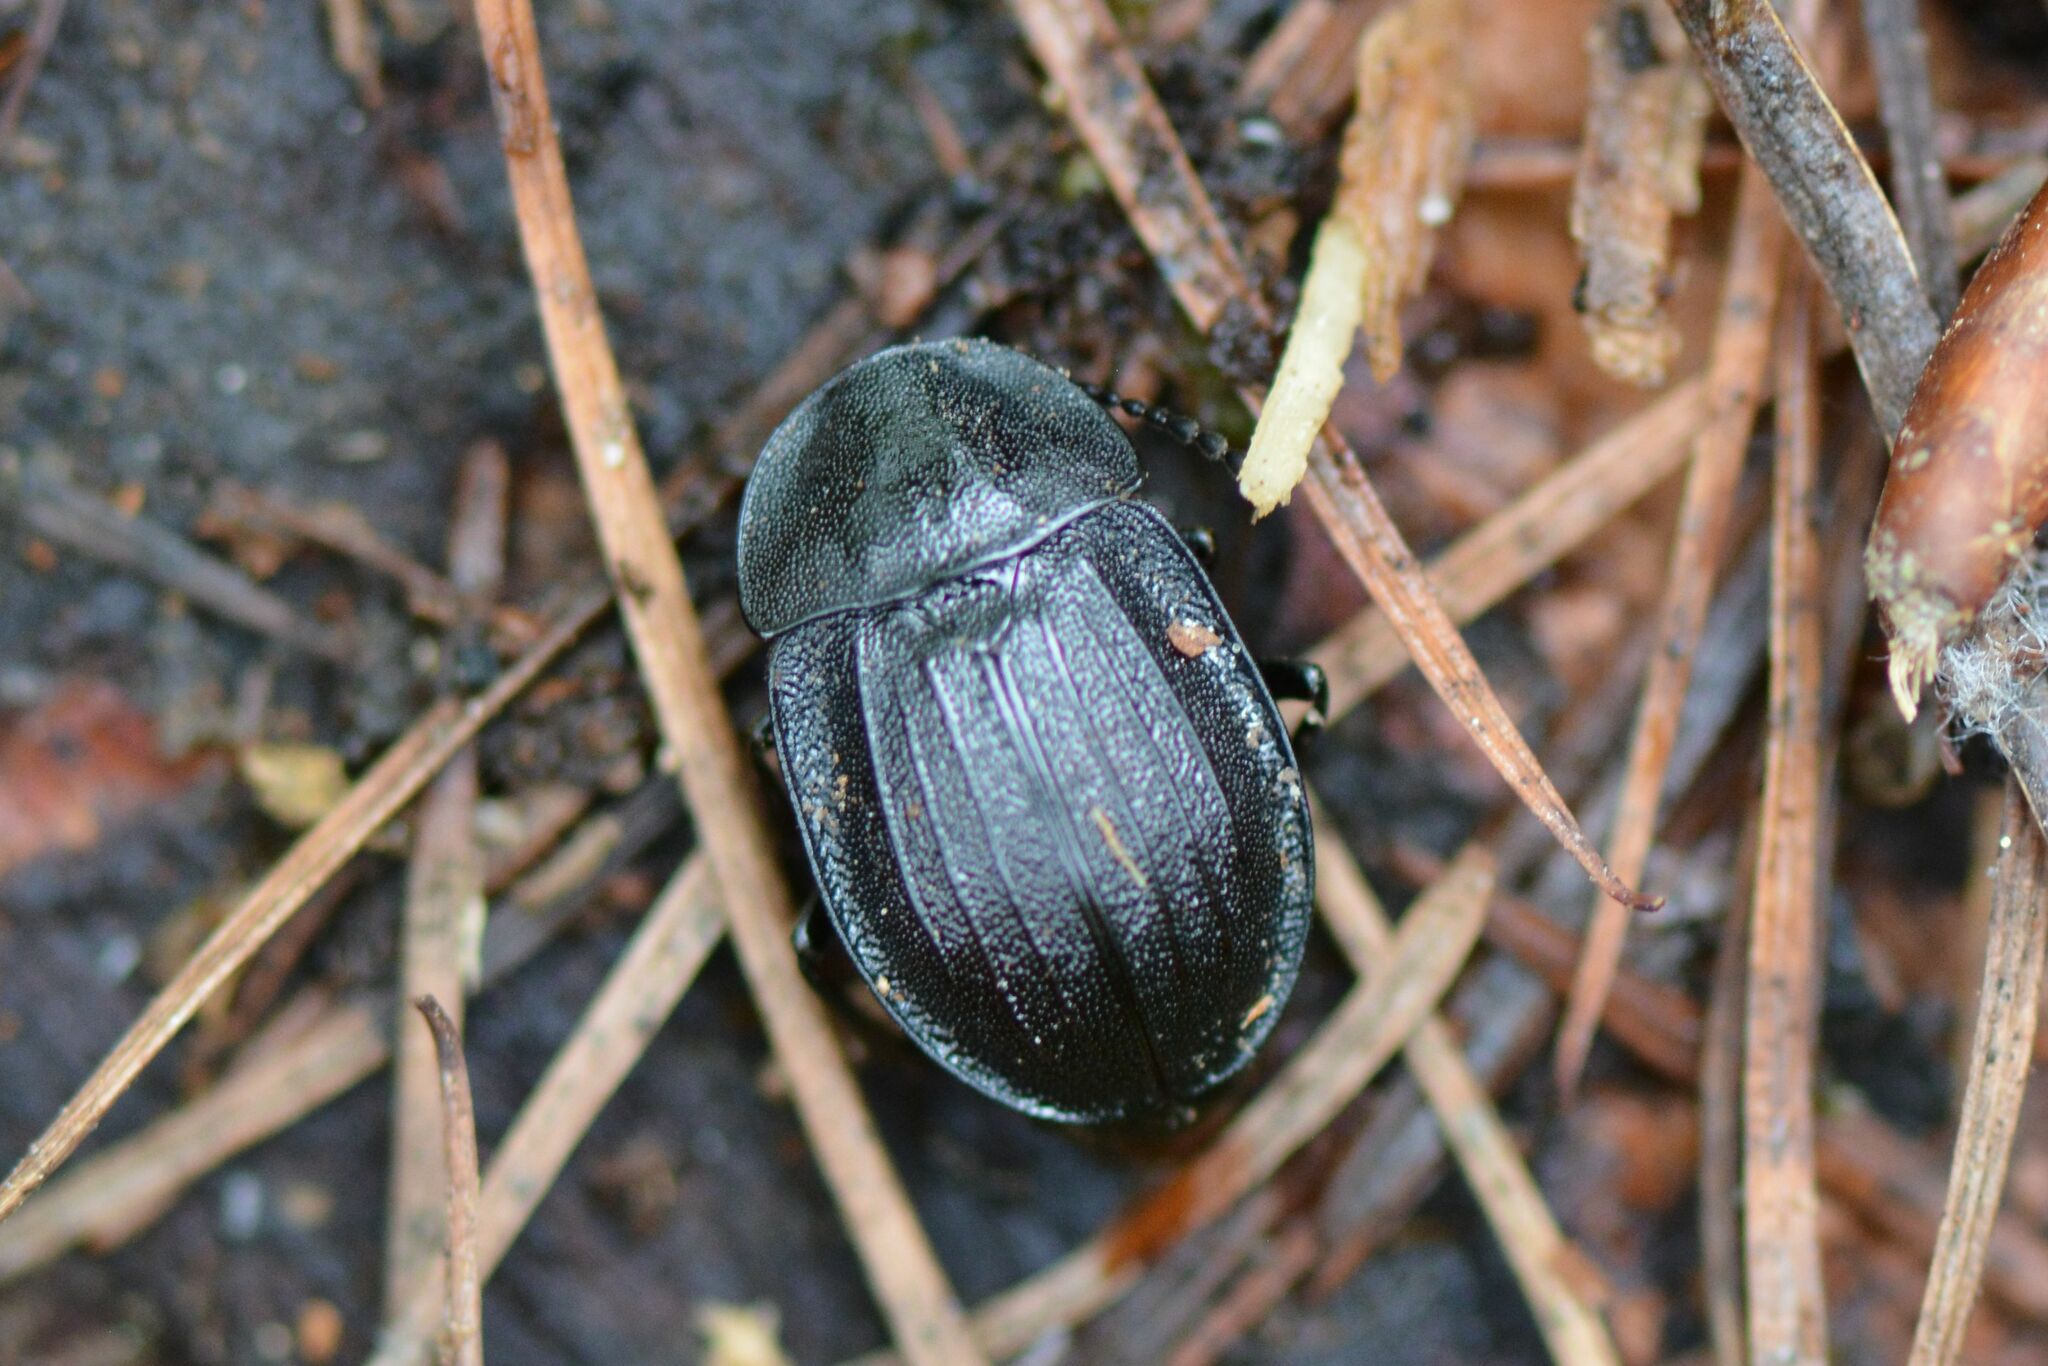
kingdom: Animalia
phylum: Arthropoda
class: Insecta
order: Coleoptera
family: Staphylinidae
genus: Silpha
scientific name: Silpha atrata
